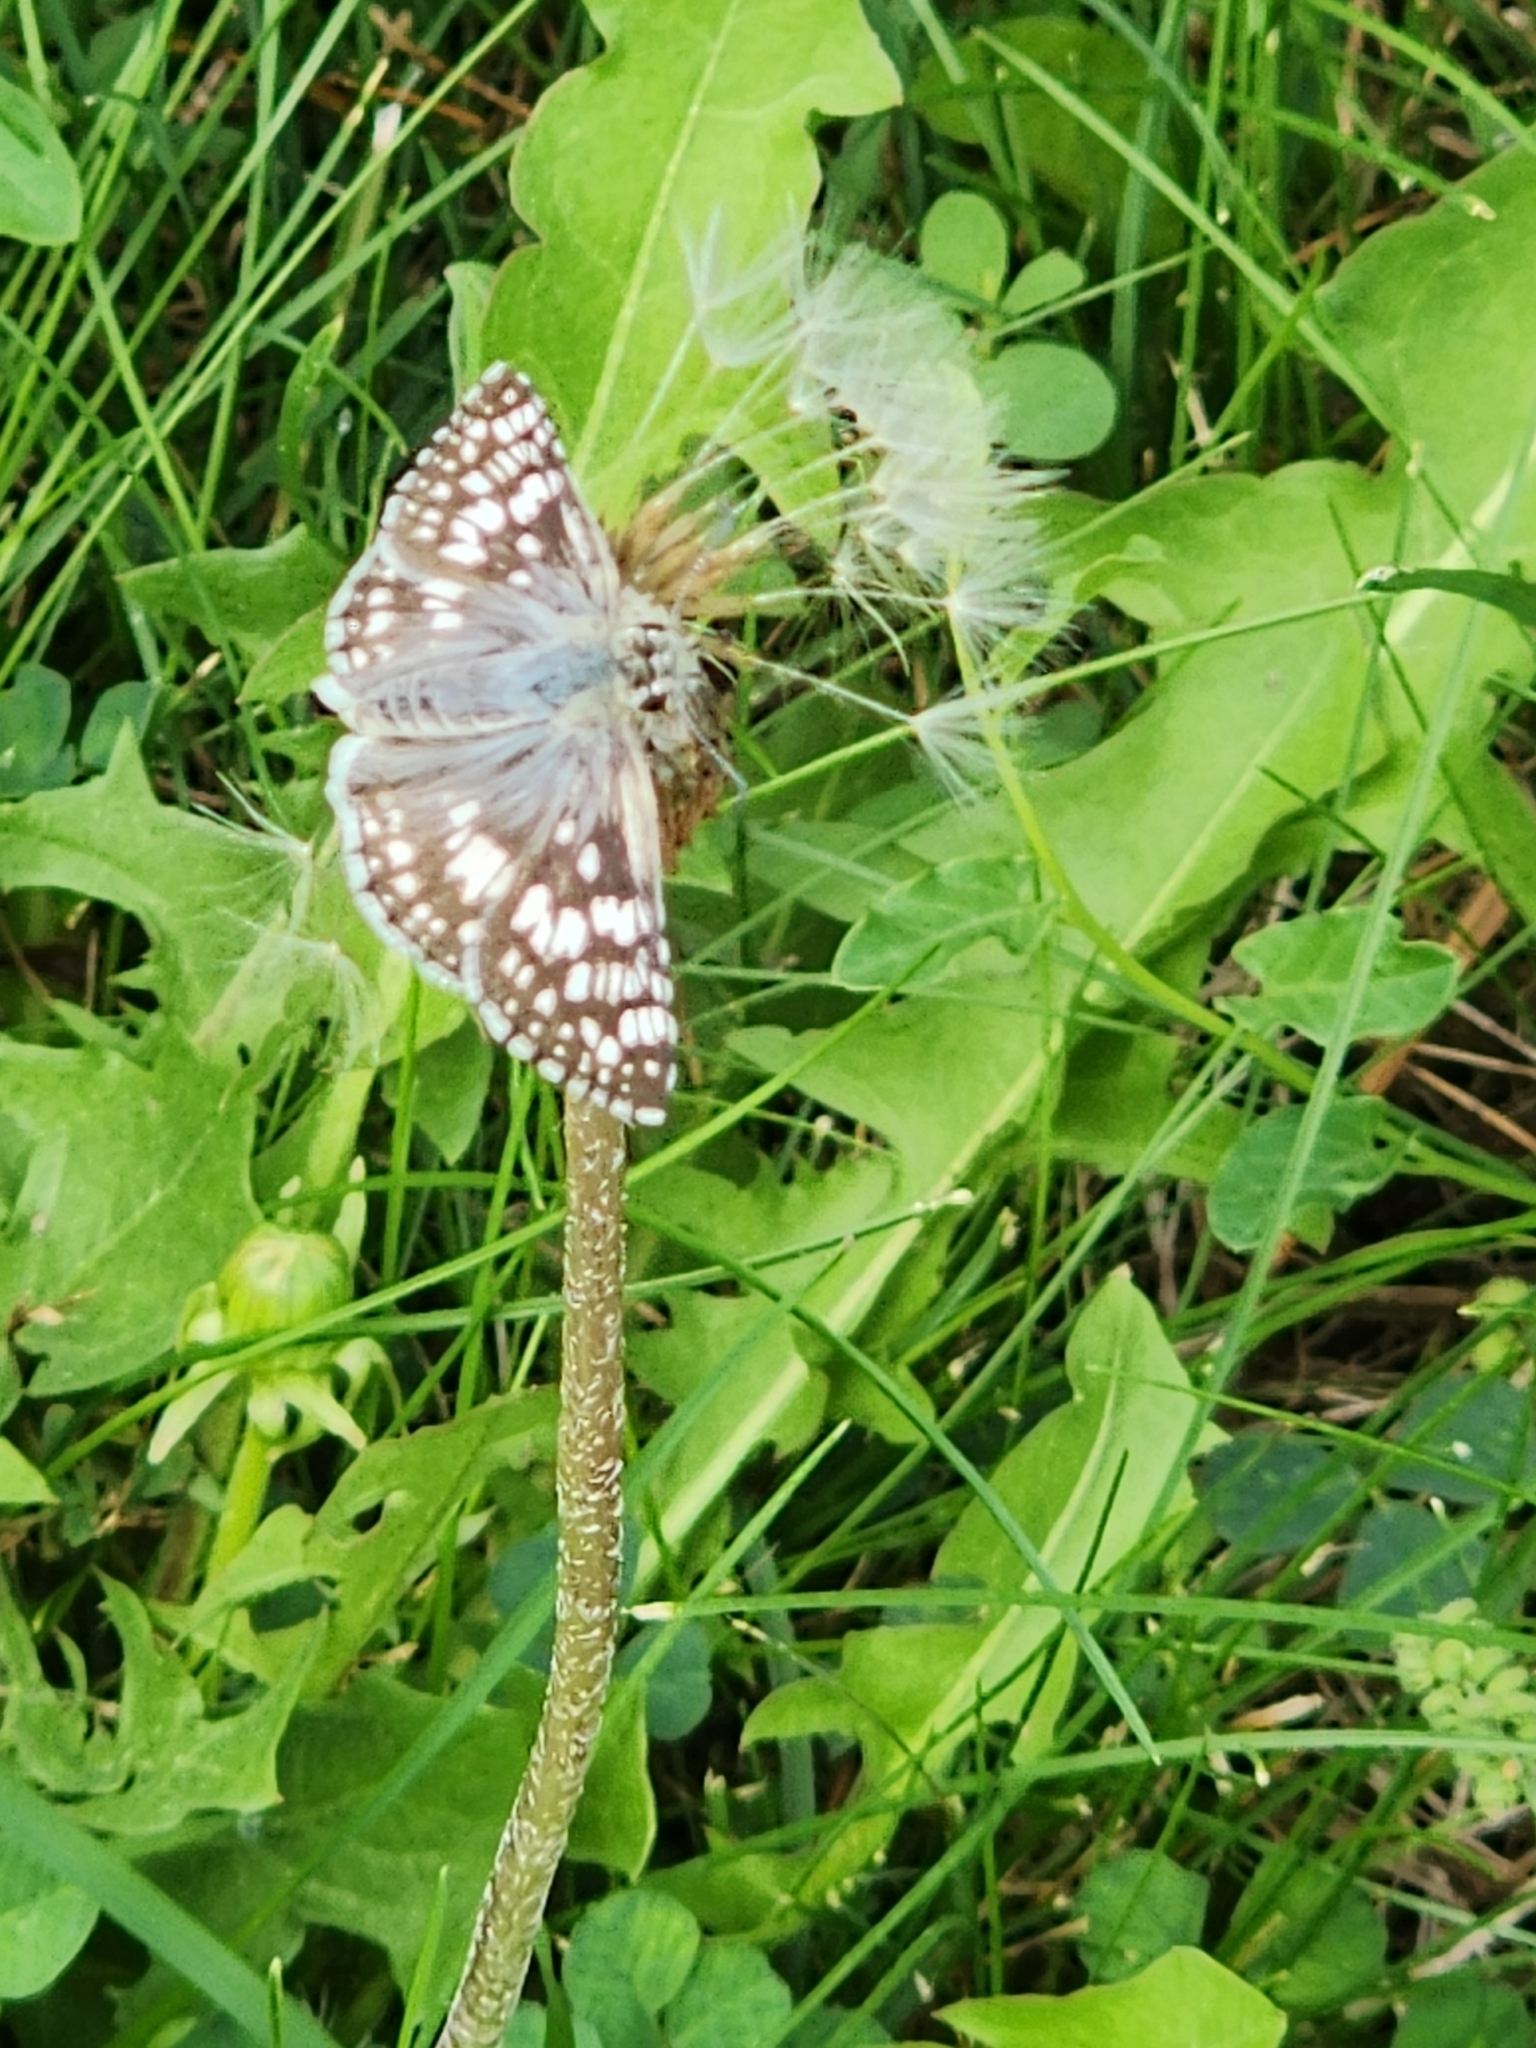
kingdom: Animalia
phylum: Arthropoda
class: Insecta
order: Lepidoptera
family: Hesperiidae
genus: Burnsius
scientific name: Burnsius communis
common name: Common checkered-skipper
